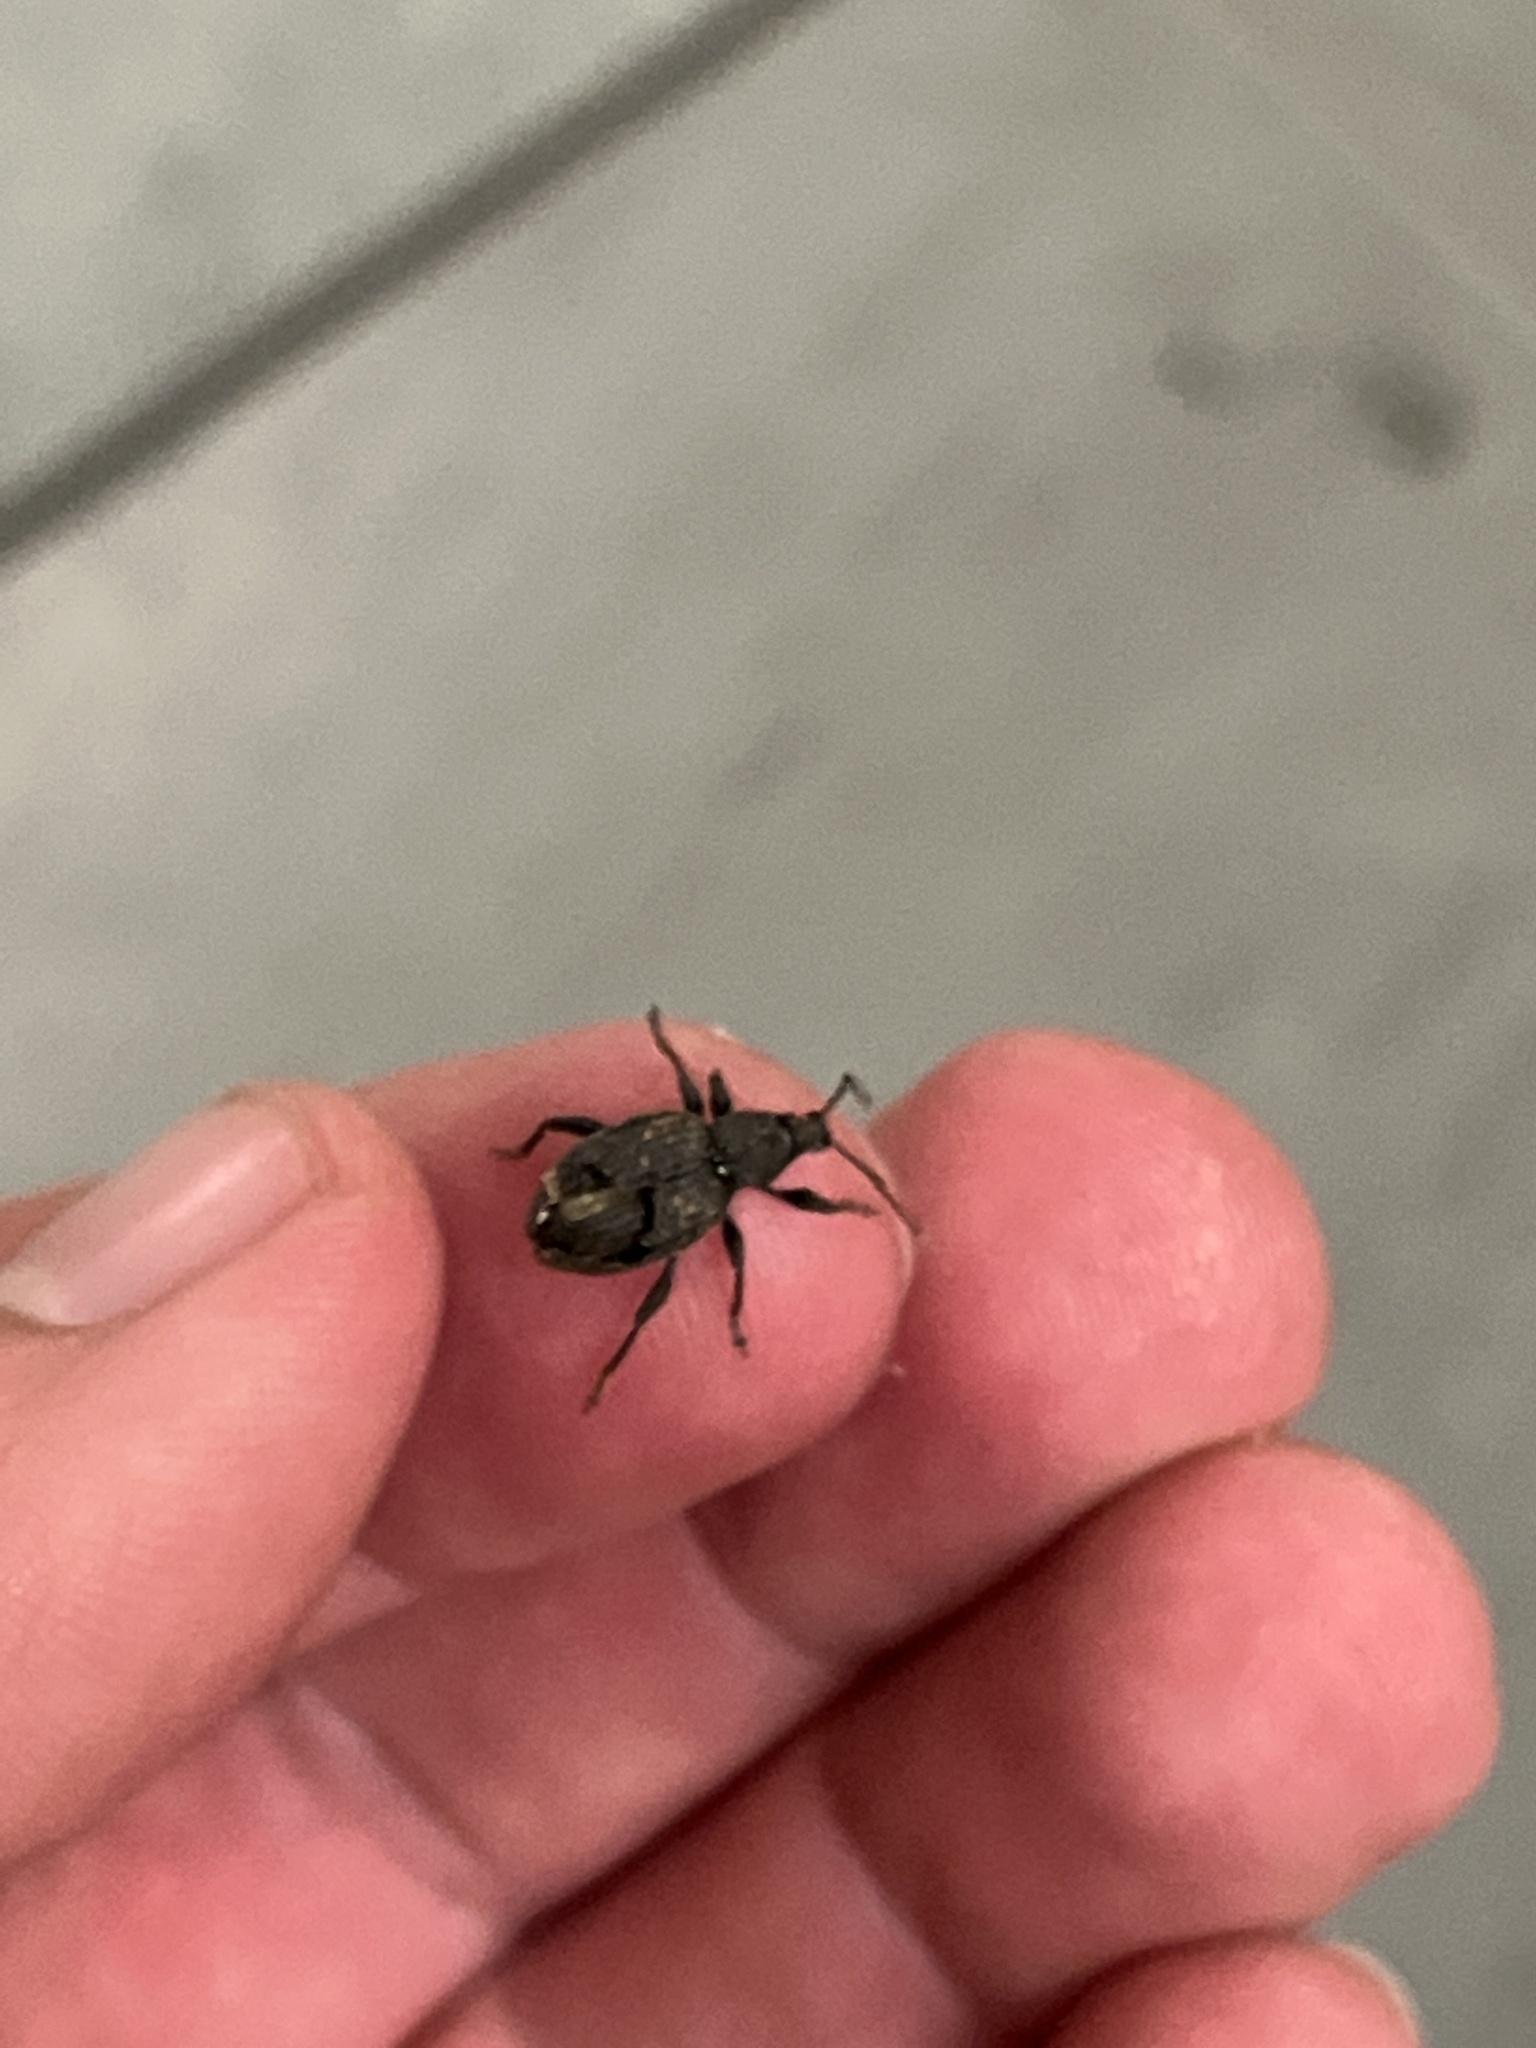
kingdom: Animalia
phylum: Arthropoda
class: Insecta
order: Coleoptera
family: Curculionidae
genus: Otiorhynchus
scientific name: Otiorhynchus sulcatus
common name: Black vine weevil
